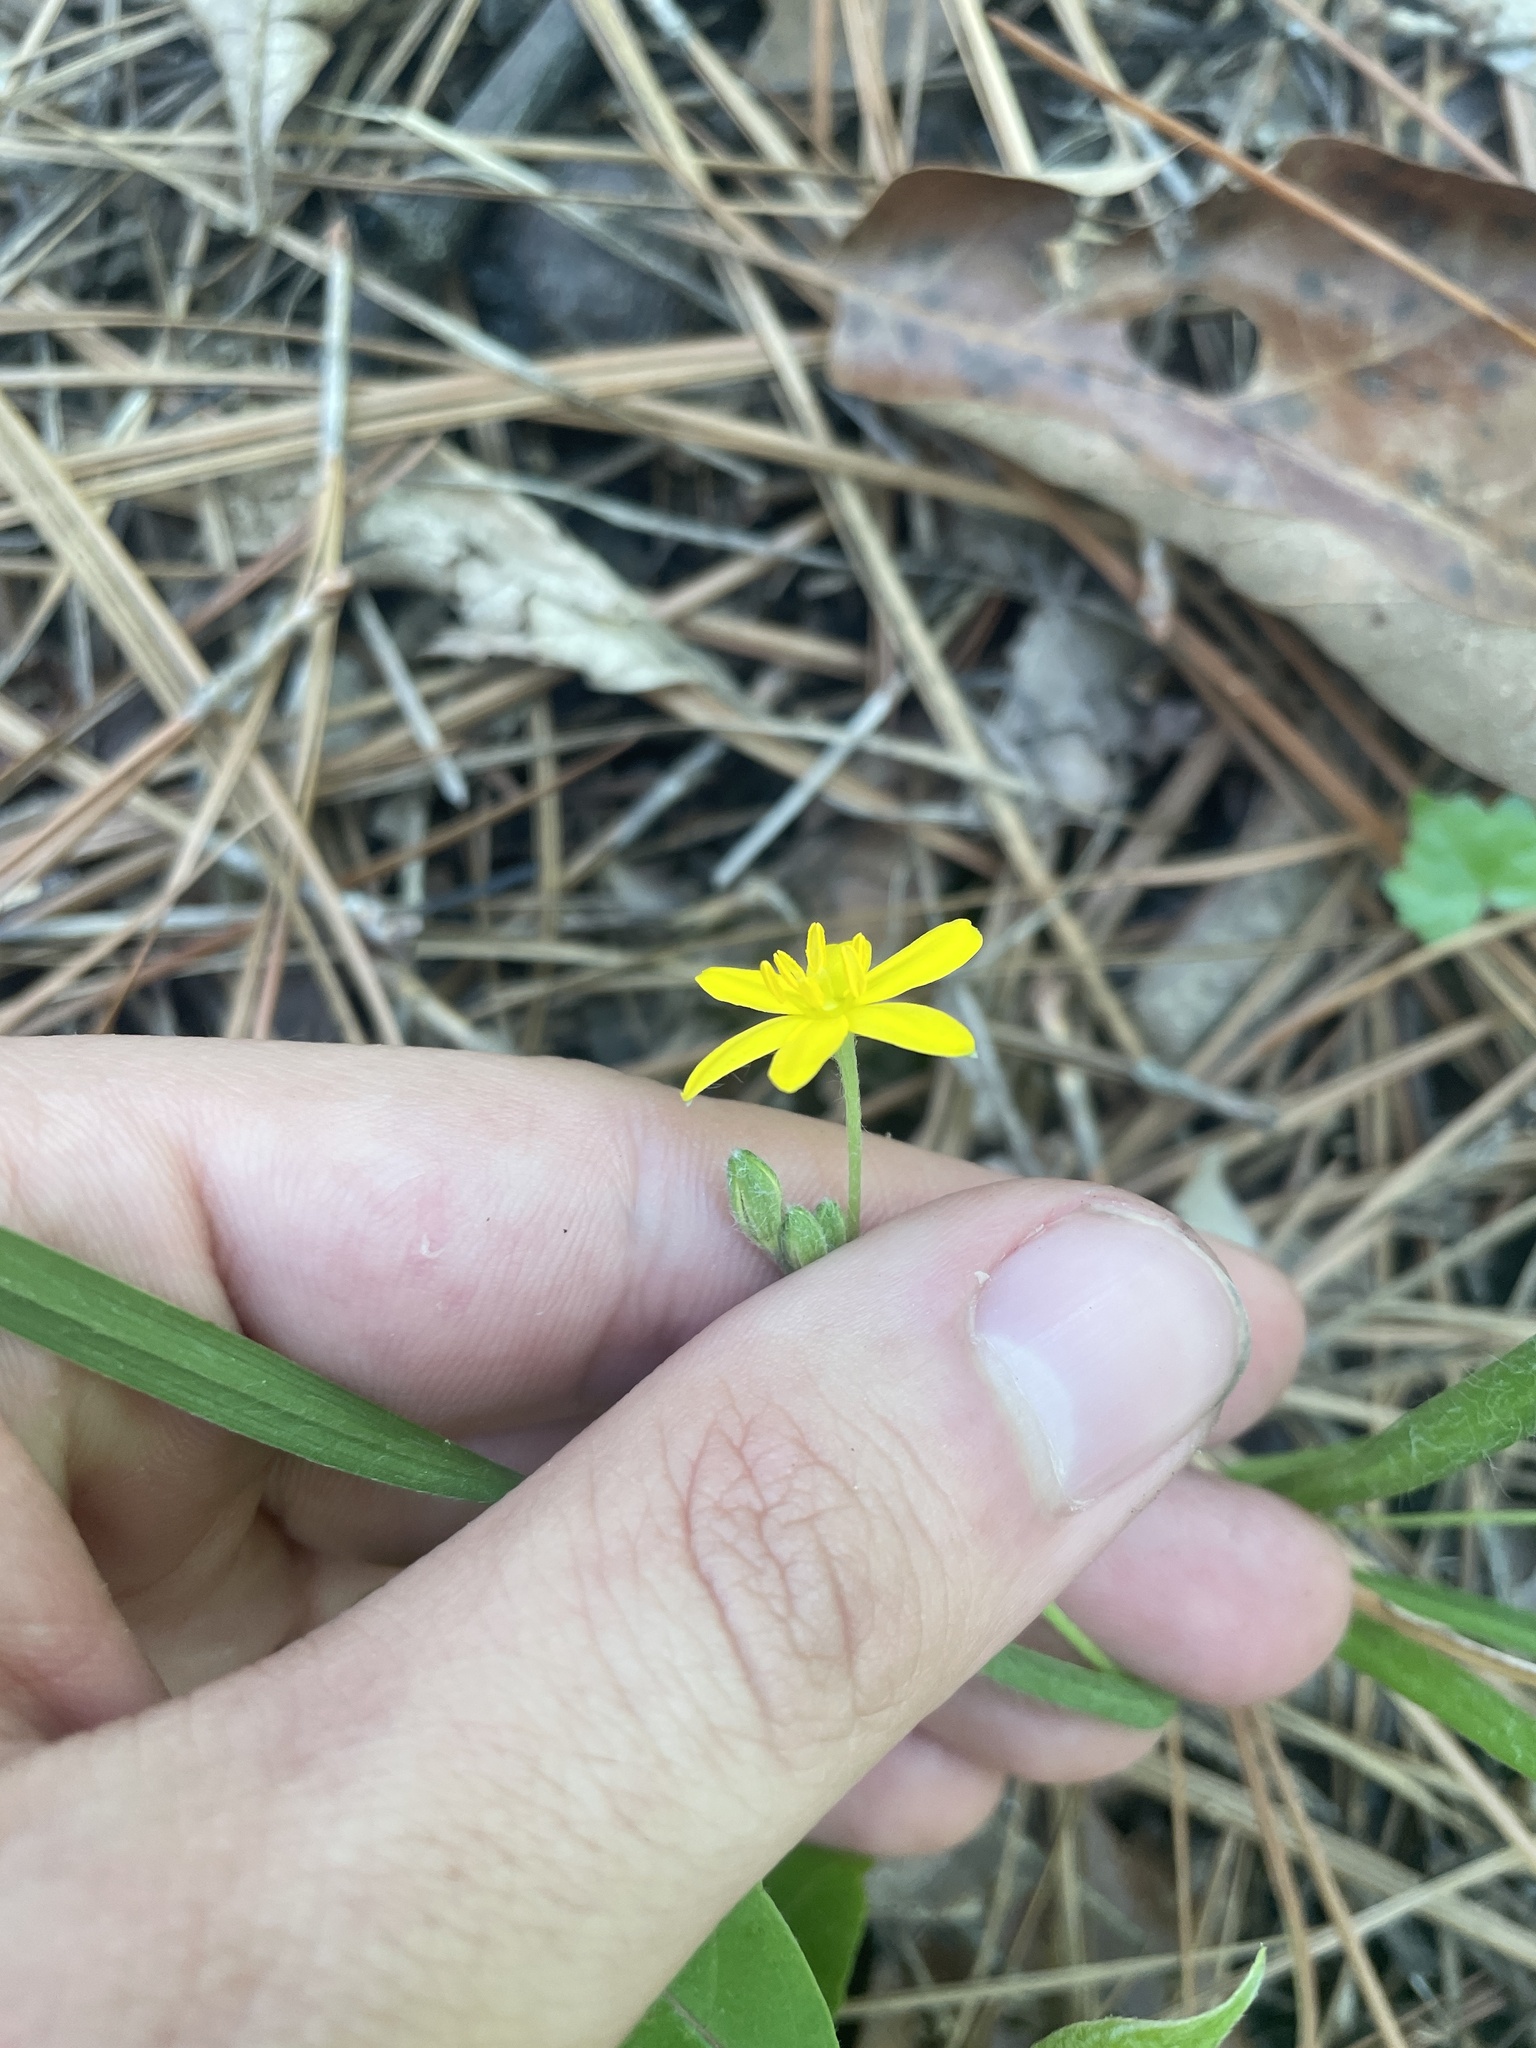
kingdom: Plantae
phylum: Tracheophyta
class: Liliopsida
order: Asparagales
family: Hypoxidaceae
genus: Hypoxis
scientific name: Hypoxis hirsuta
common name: Common goldstar
